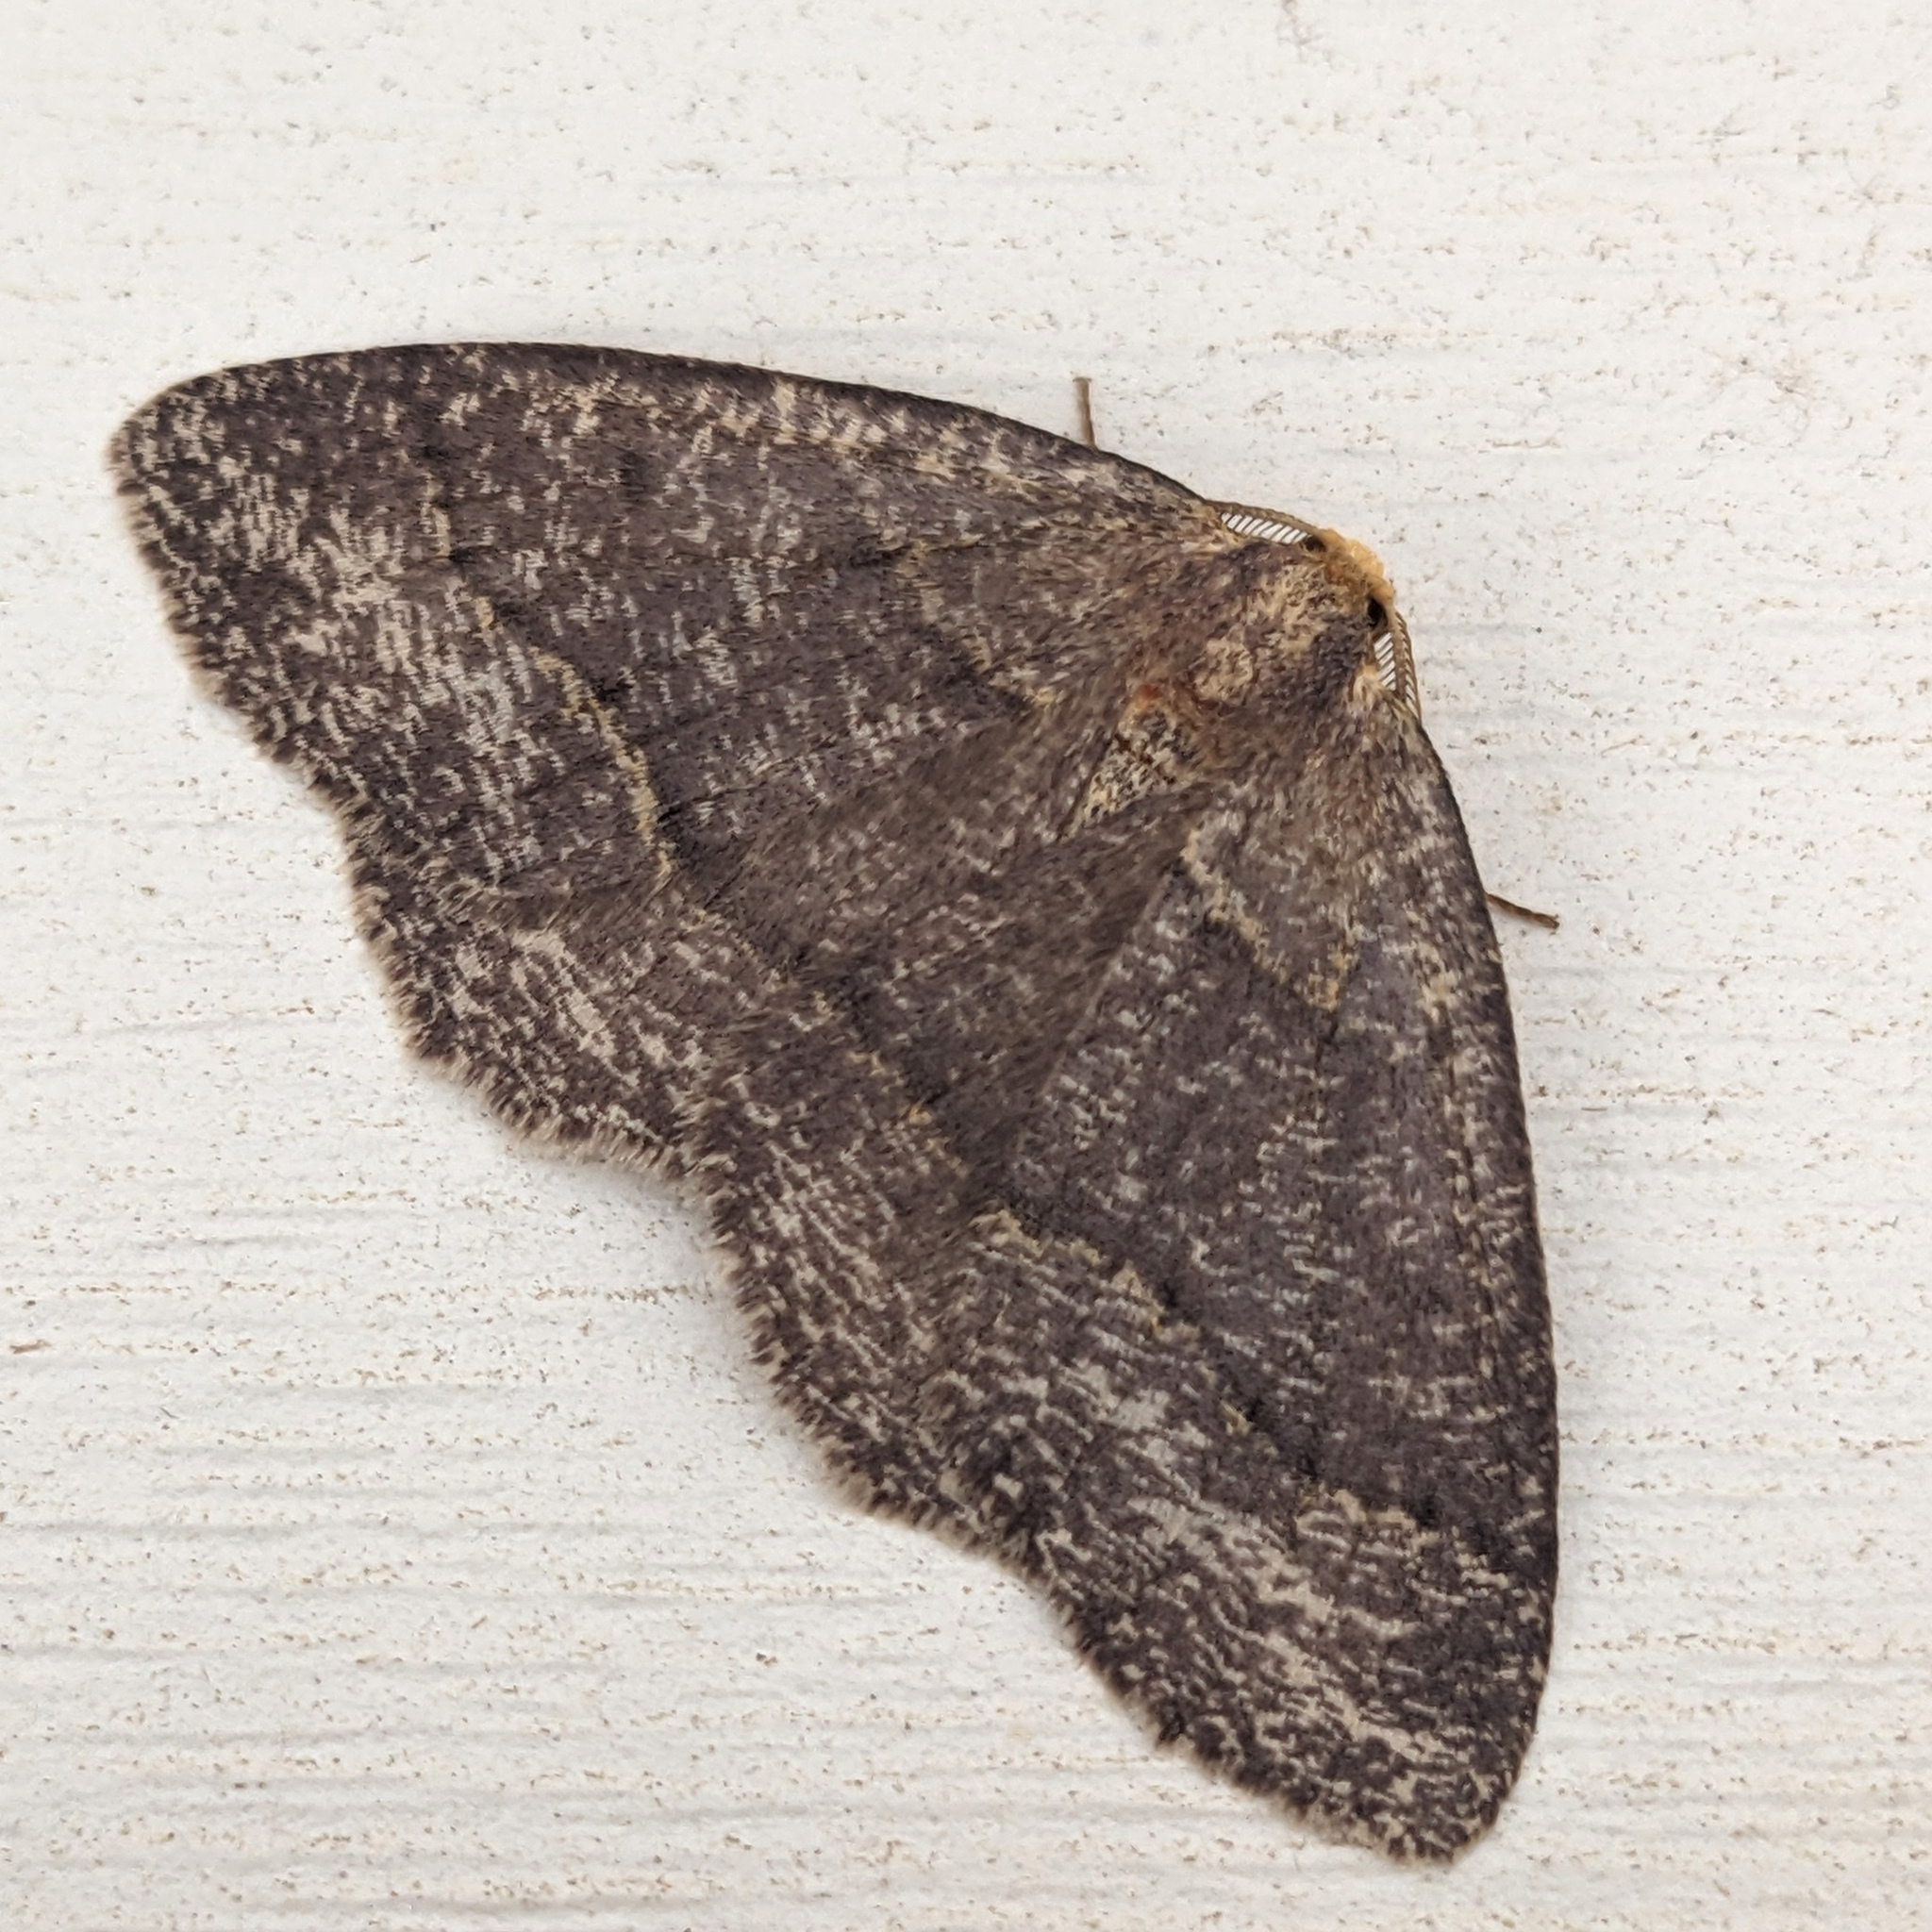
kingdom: Animalia
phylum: Arthropoda
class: Insecta
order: Lepidoptera
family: Geometridae
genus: Lambdina
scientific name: Lambdina fervidaria
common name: Curve-lined looper moth
